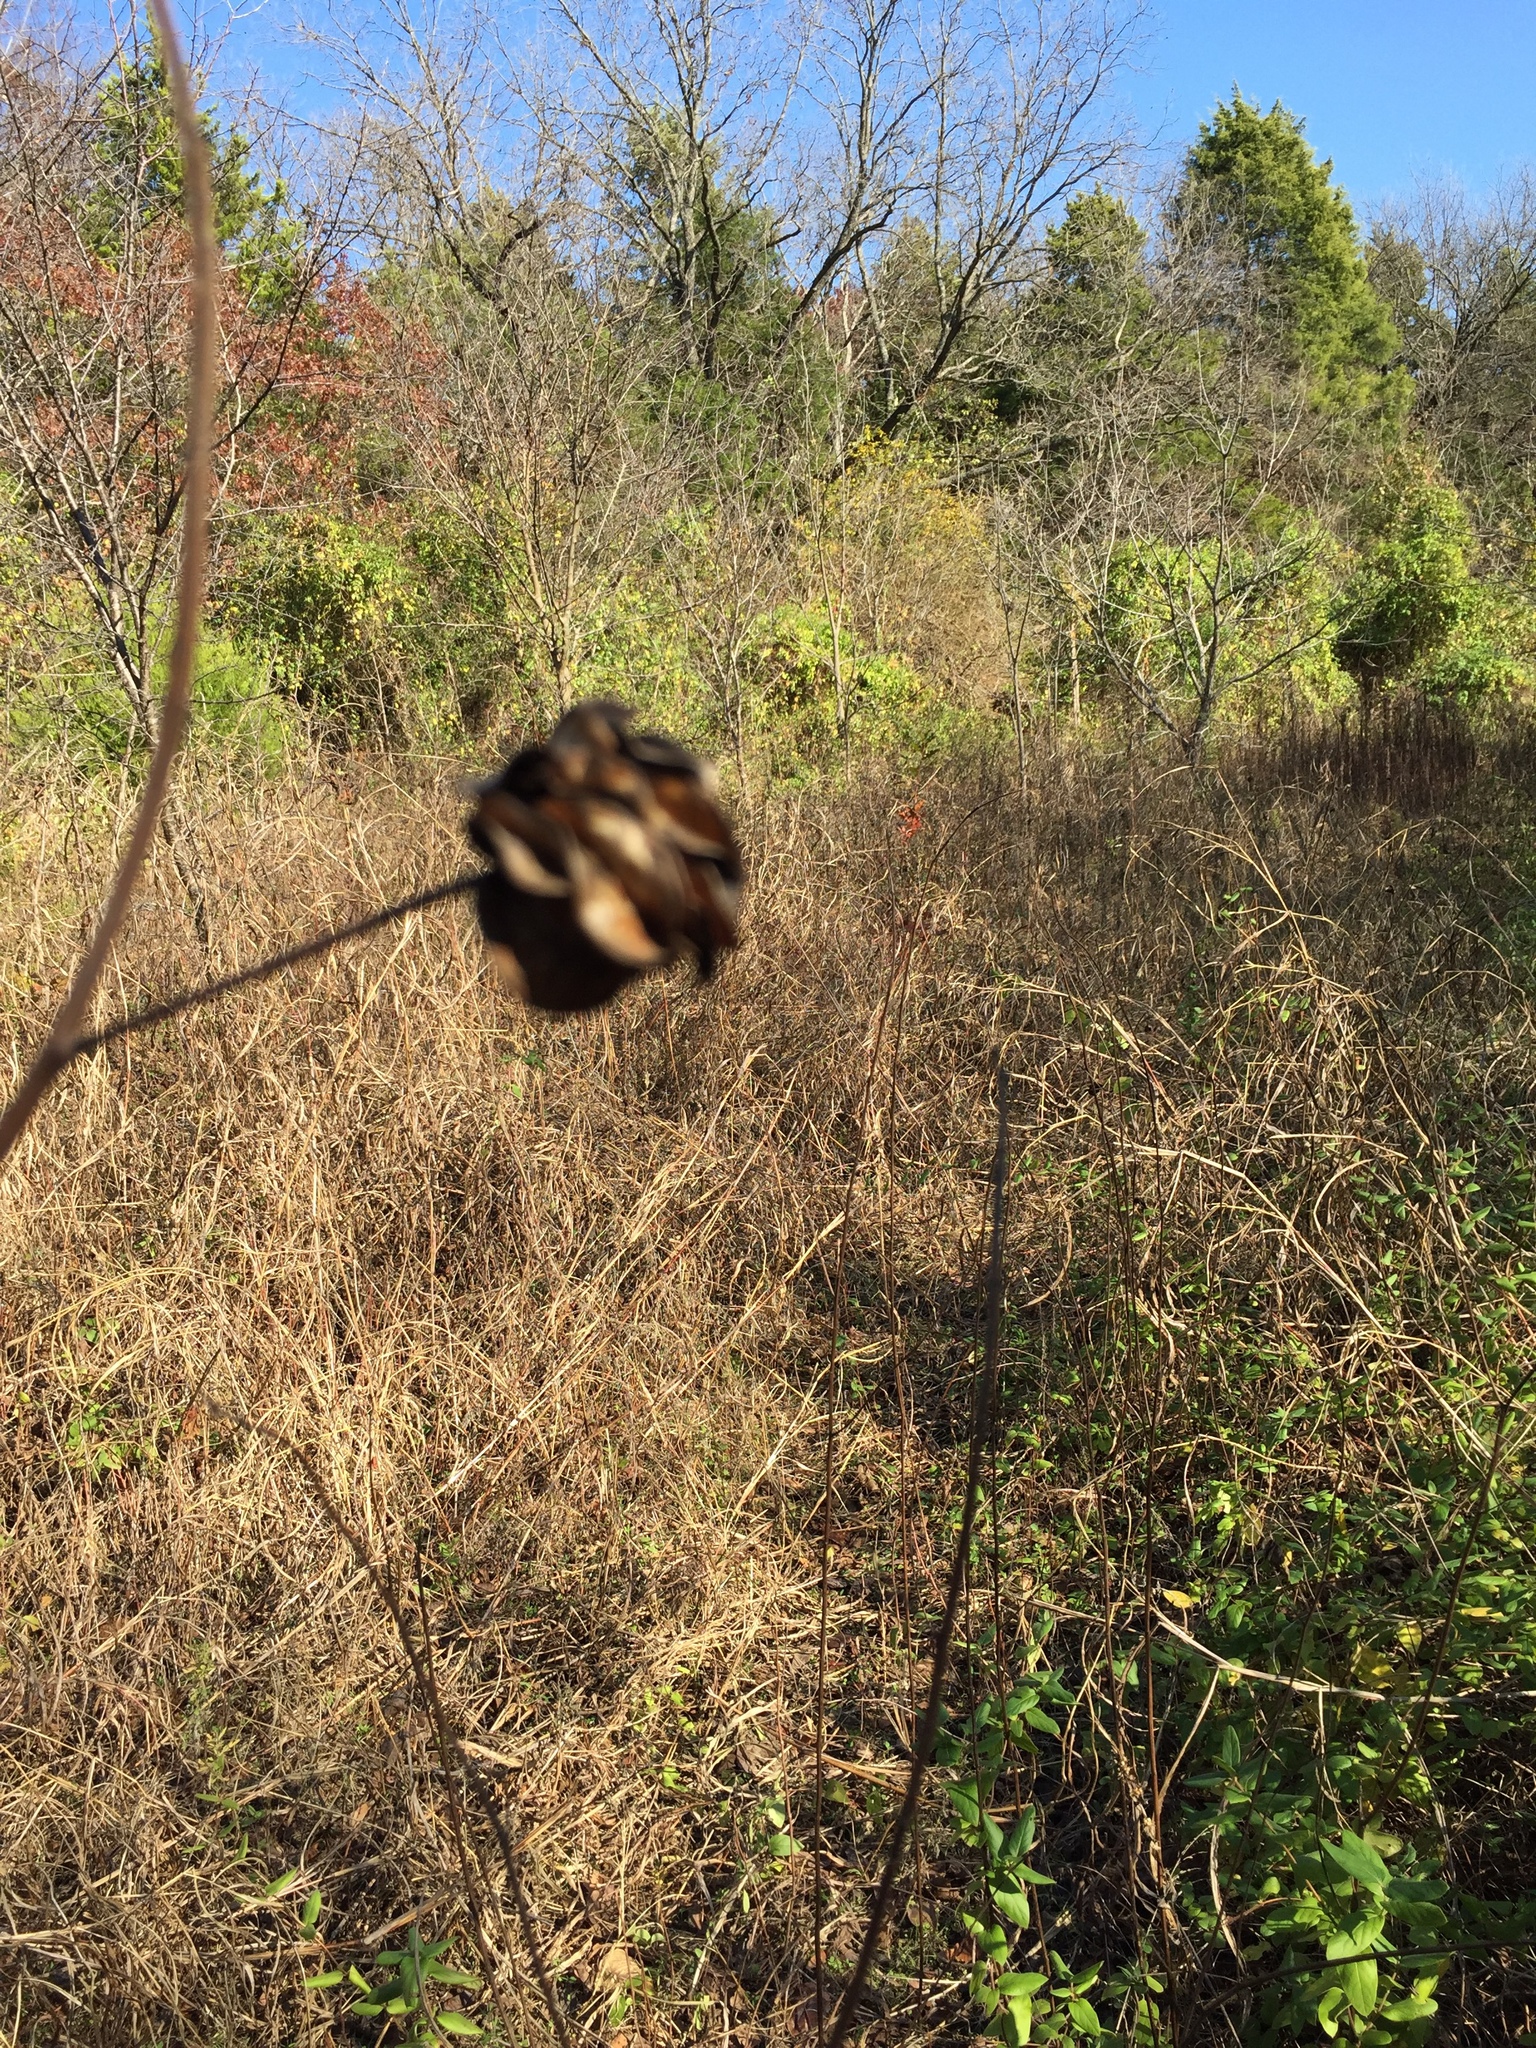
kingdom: Plantae
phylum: Tracheophyta
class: Magnoliopsida
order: Fabales
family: Fabaceae
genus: Desmanthus
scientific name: Desmanthus illinoensis
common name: Illinois bundle-flower
